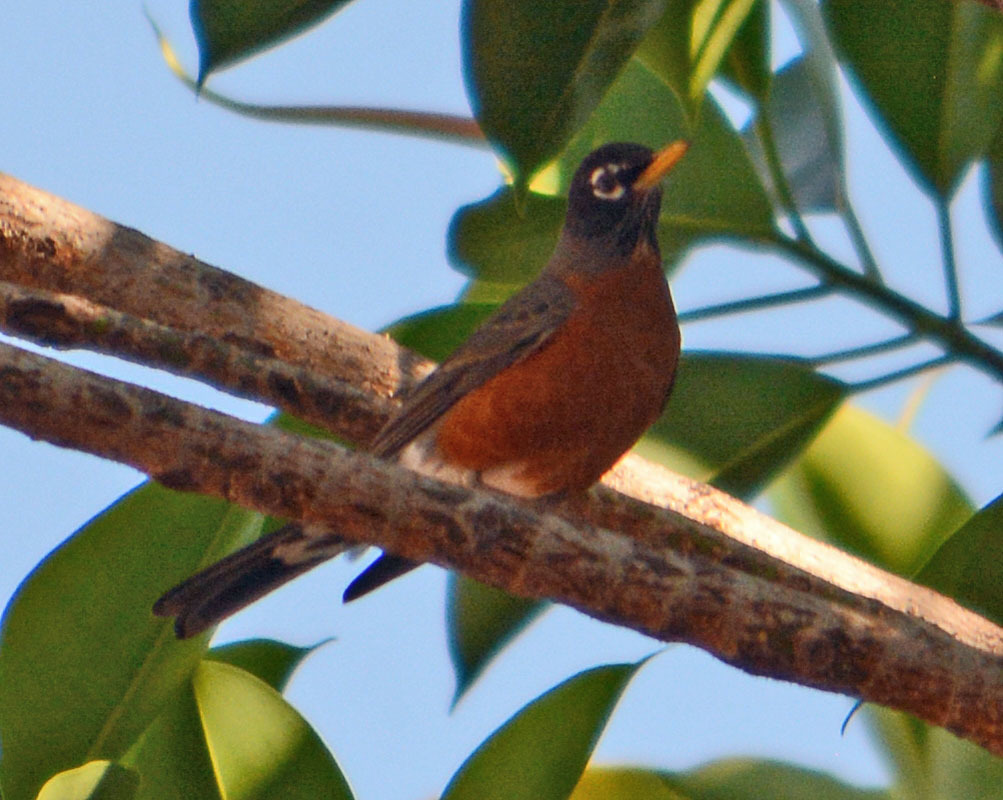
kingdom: Animalia
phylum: Chordata
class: Aves
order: Passeriformes
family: Turdidae
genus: Turdus
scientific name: Turdus migratorius
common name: American robin
